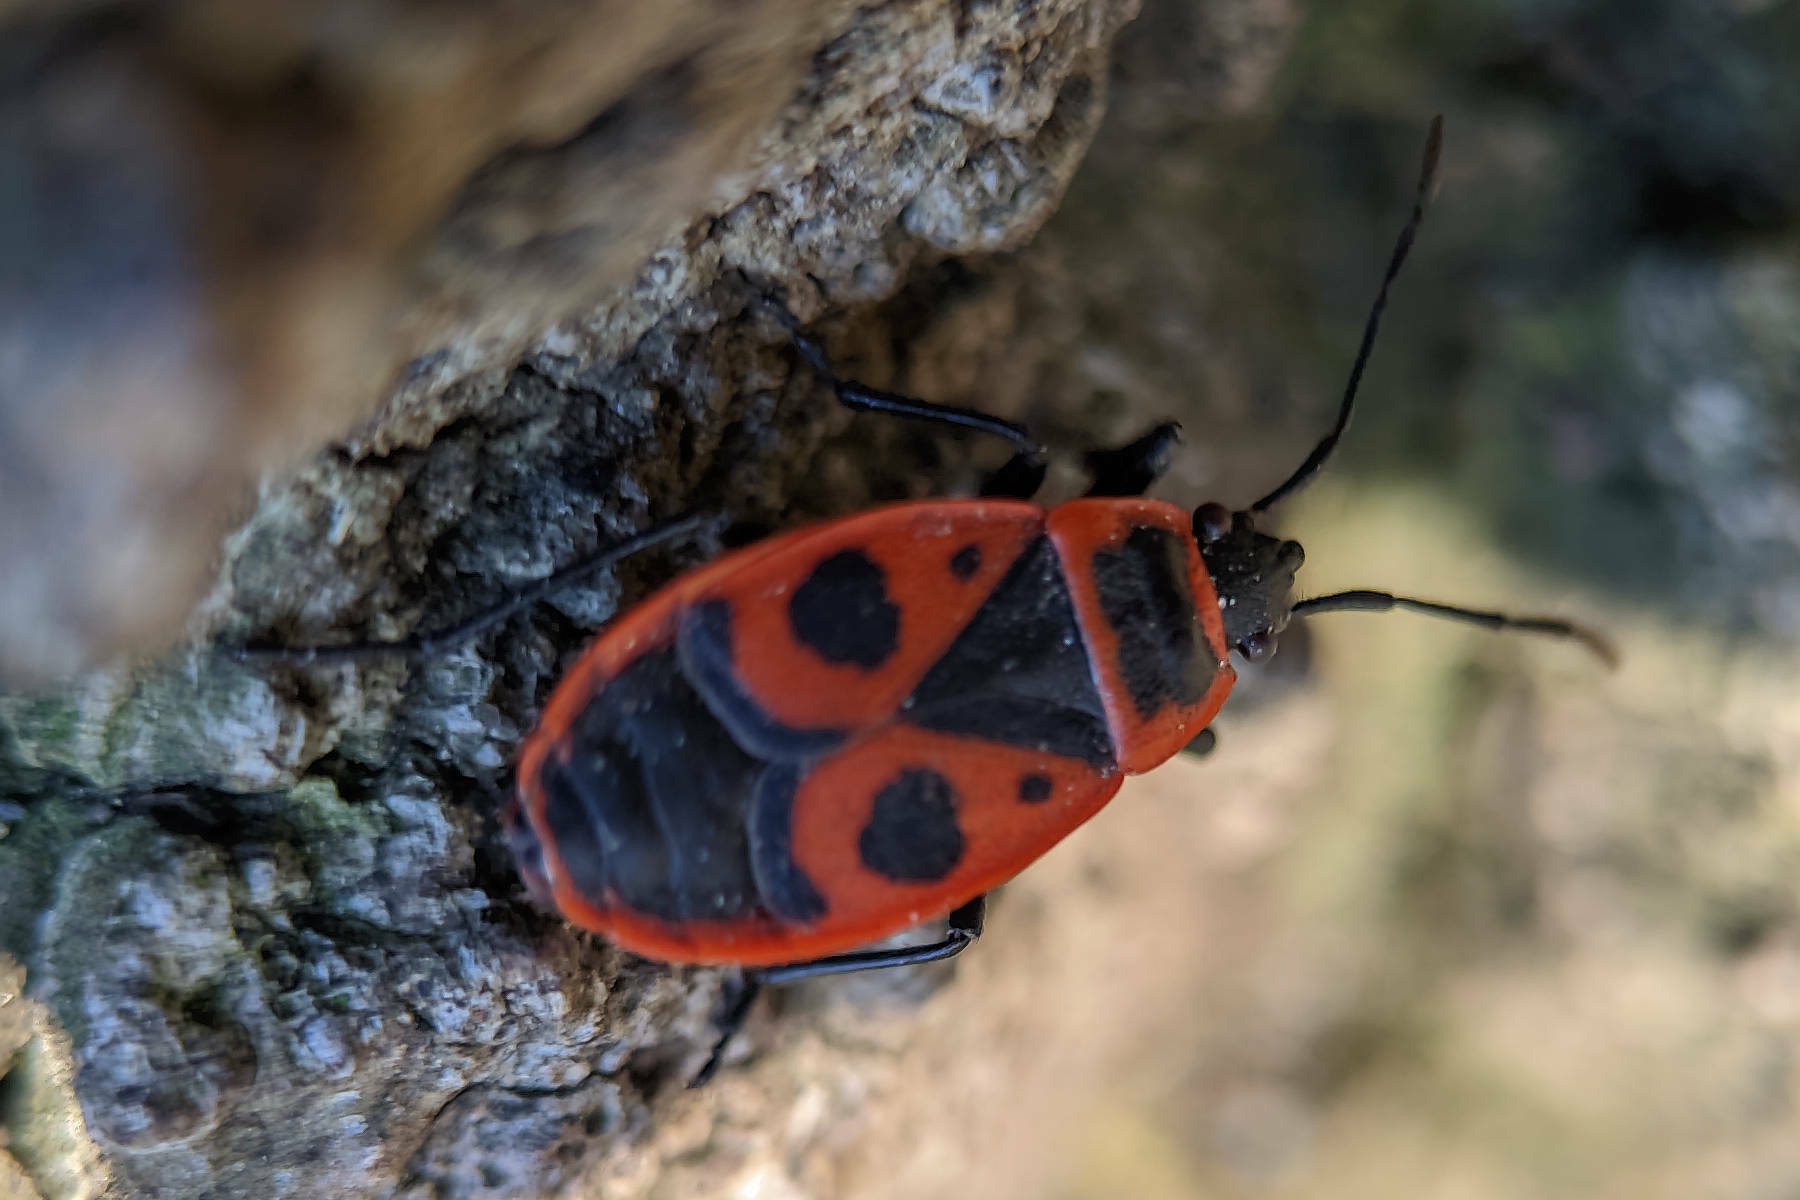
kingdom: Animalia
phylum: Arthropoda
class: Insecta
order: Hemiptera
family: Pyrrhocoridae
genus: Pyrrhocoris
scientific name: Pyrrhocoris apterus
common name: Firebug
